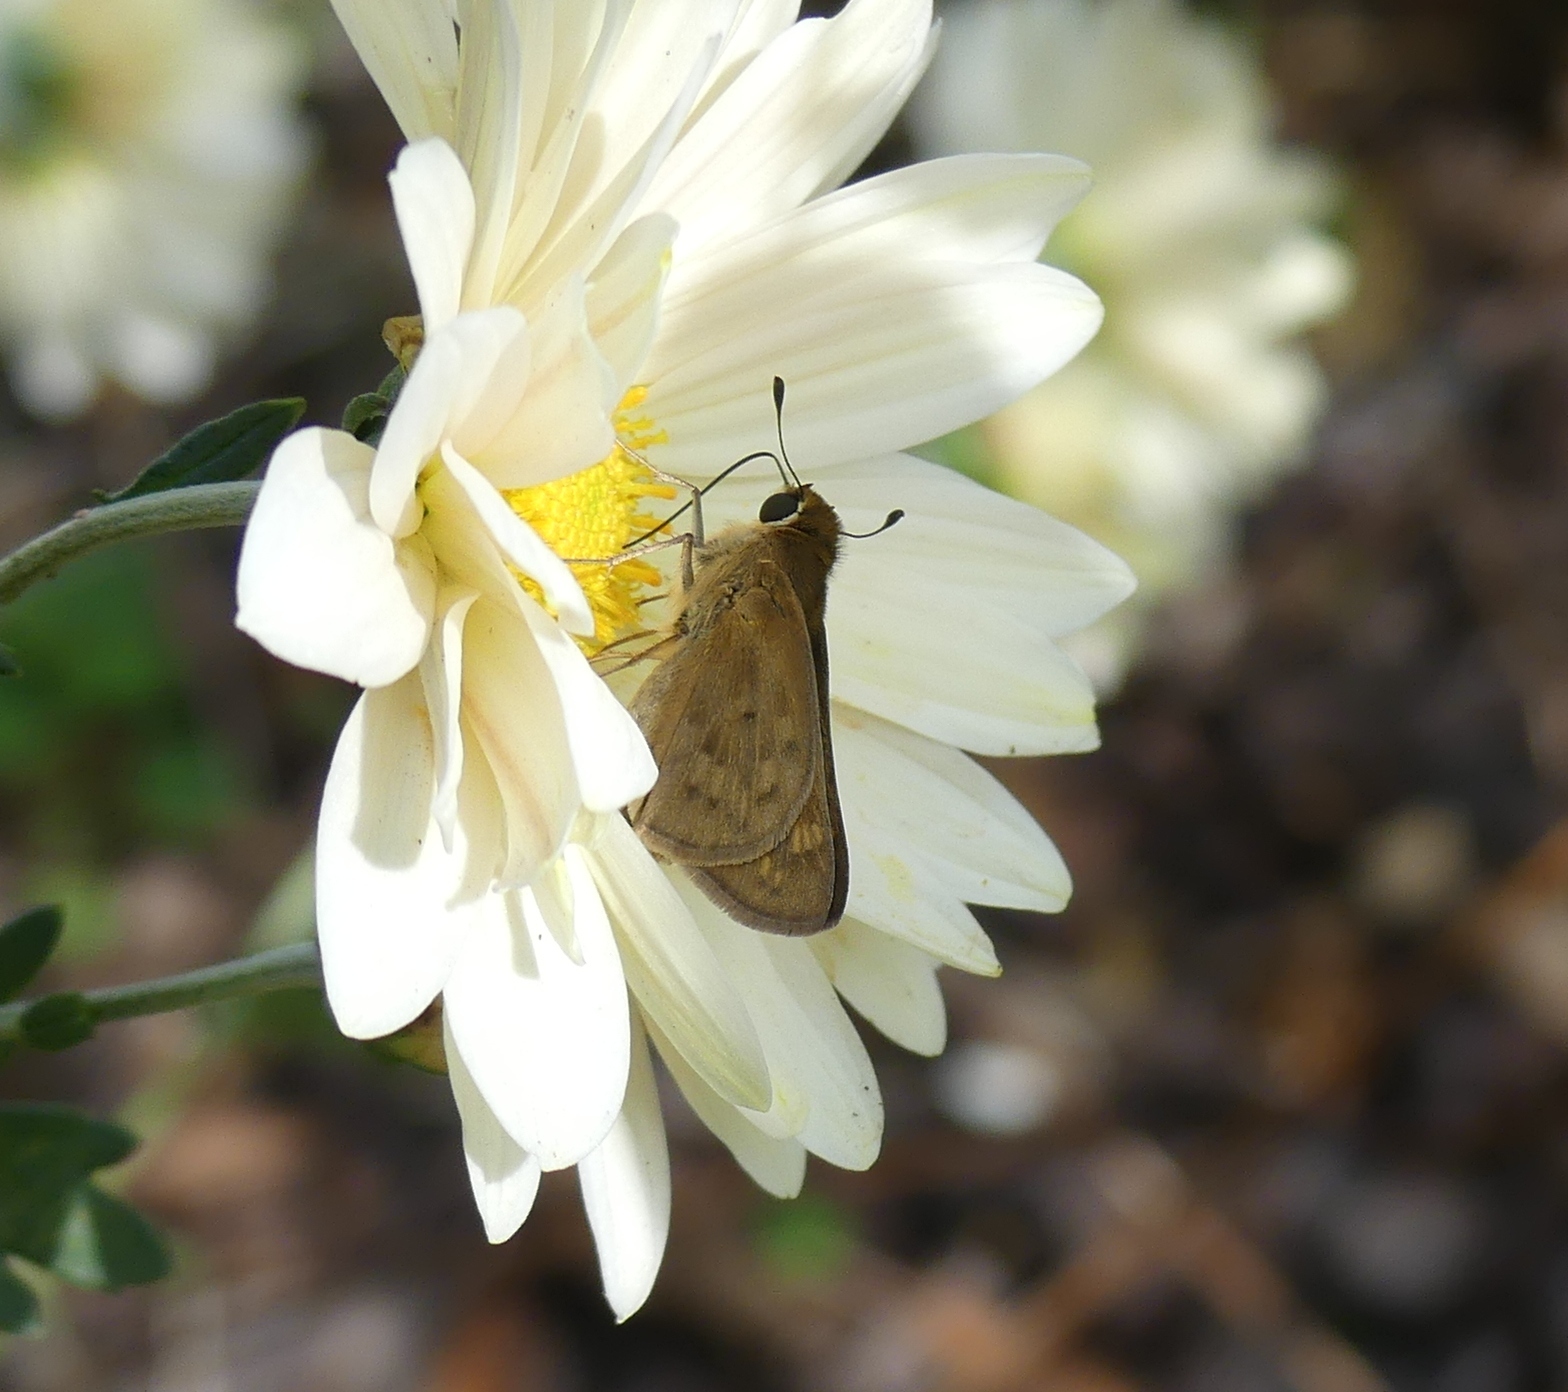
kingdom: Animalia
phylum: Arthropoda
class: Insecta
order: Lepidoptera
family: Hesperiidae
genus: Hylephila
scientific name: Hylephila phyleus
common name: Fiery skipper
